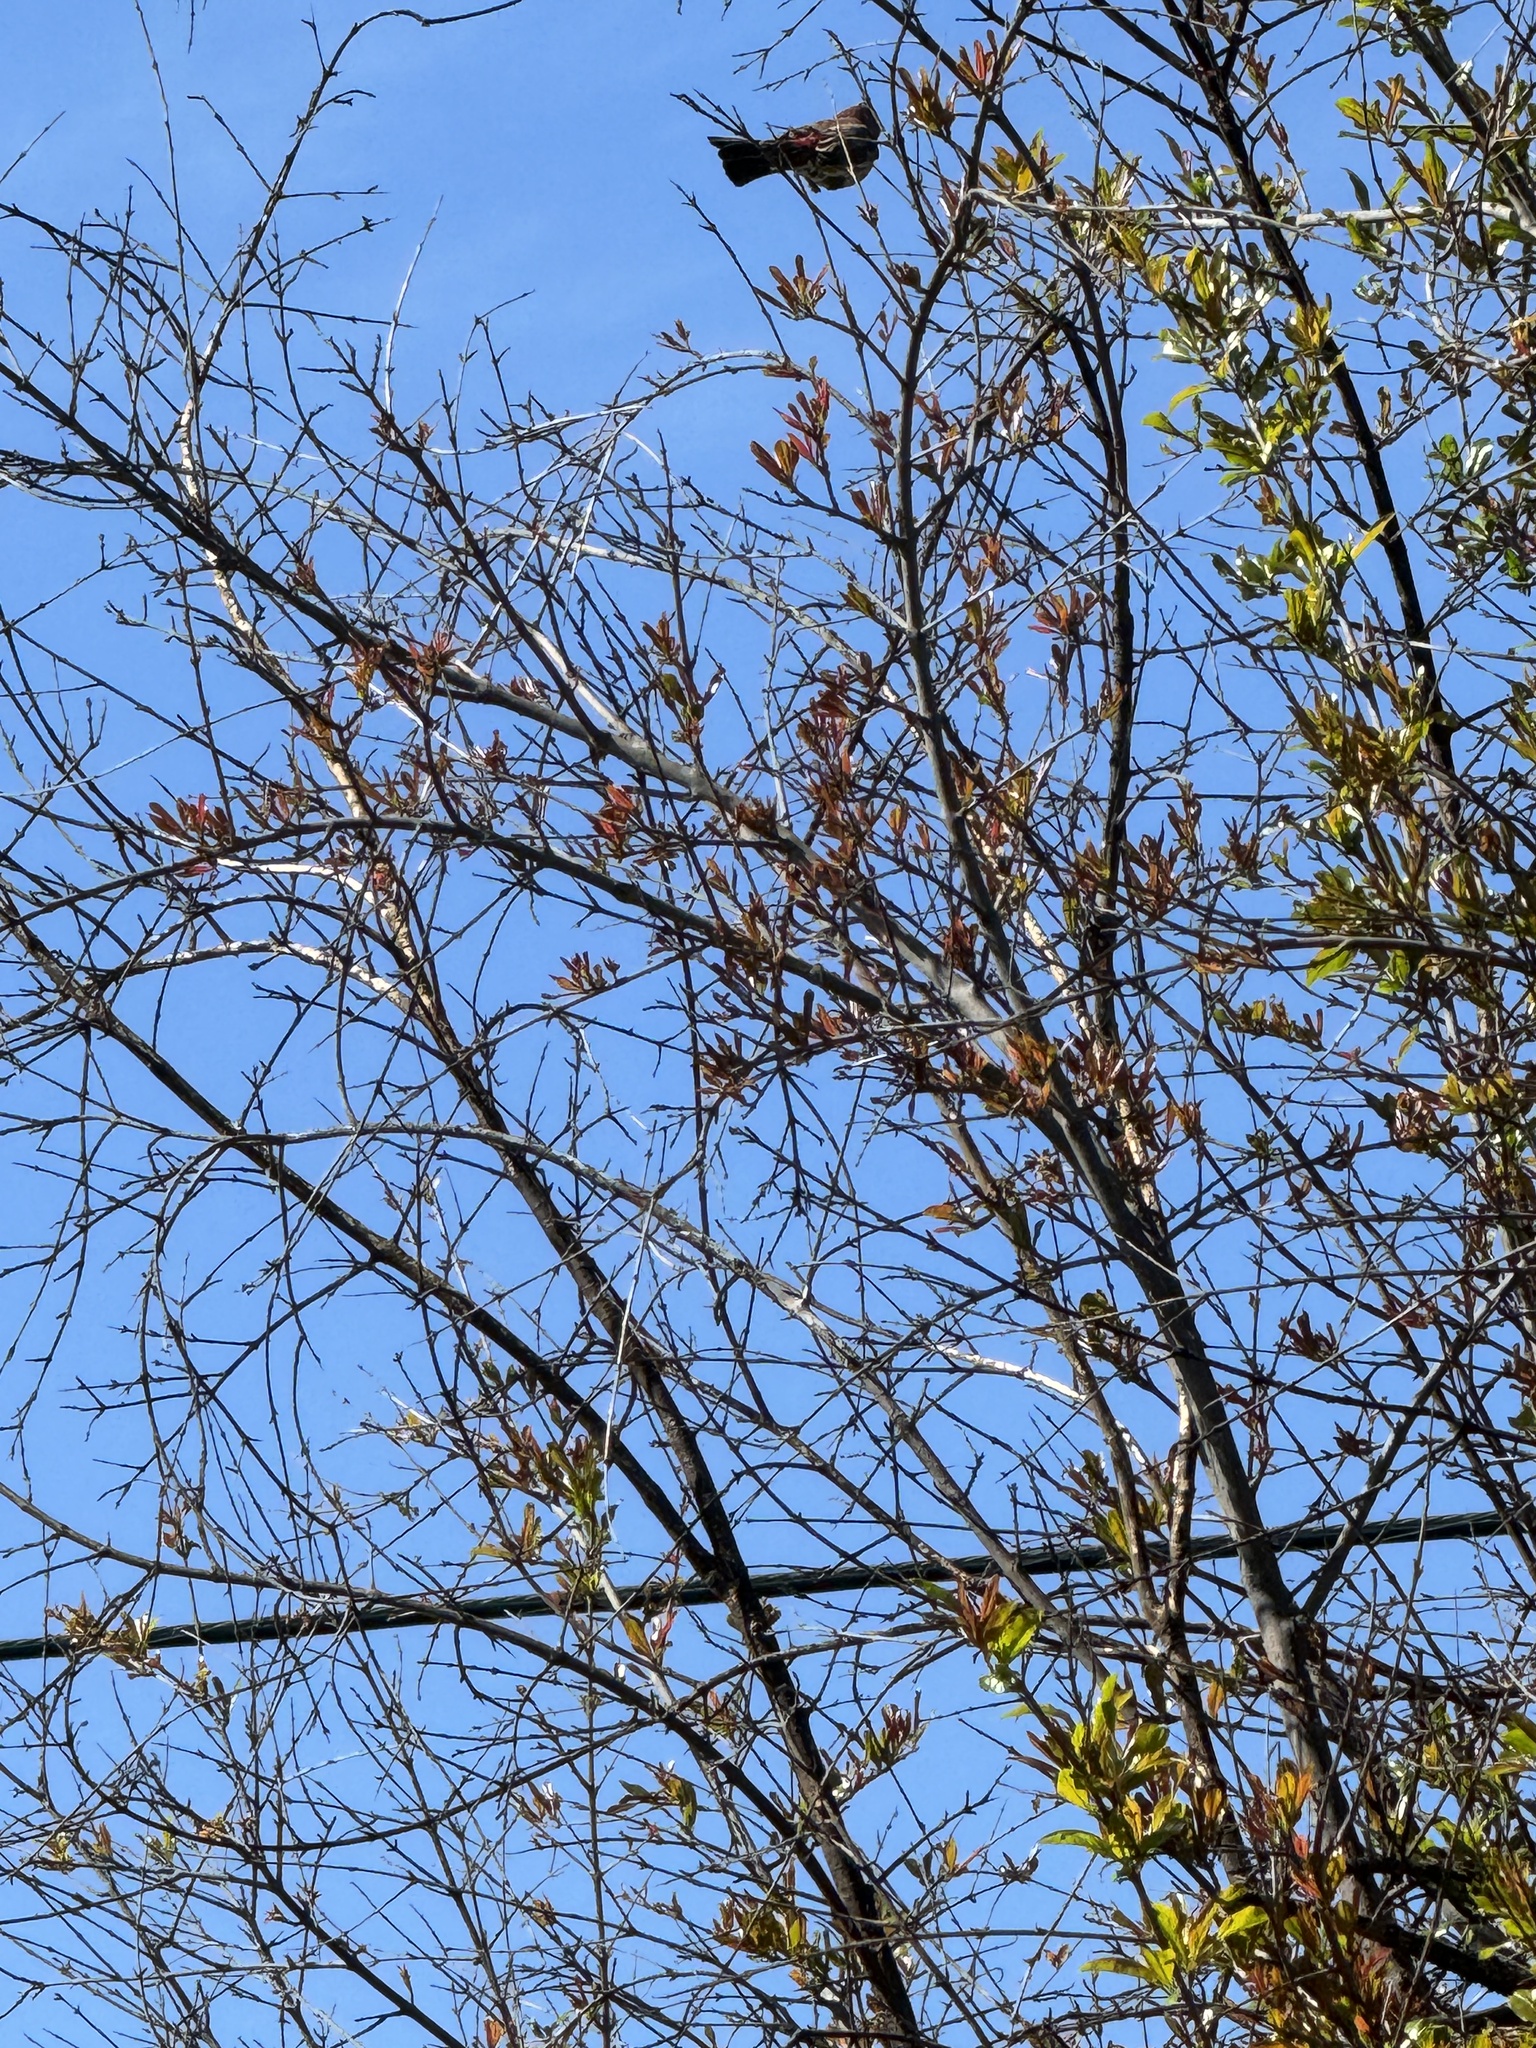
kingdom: Animalia
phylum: Chordata
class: Aves
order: Passeriformes
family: Fringillidae
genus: Haemorhous
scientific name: Haemorhous mexicanus
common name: House finch
